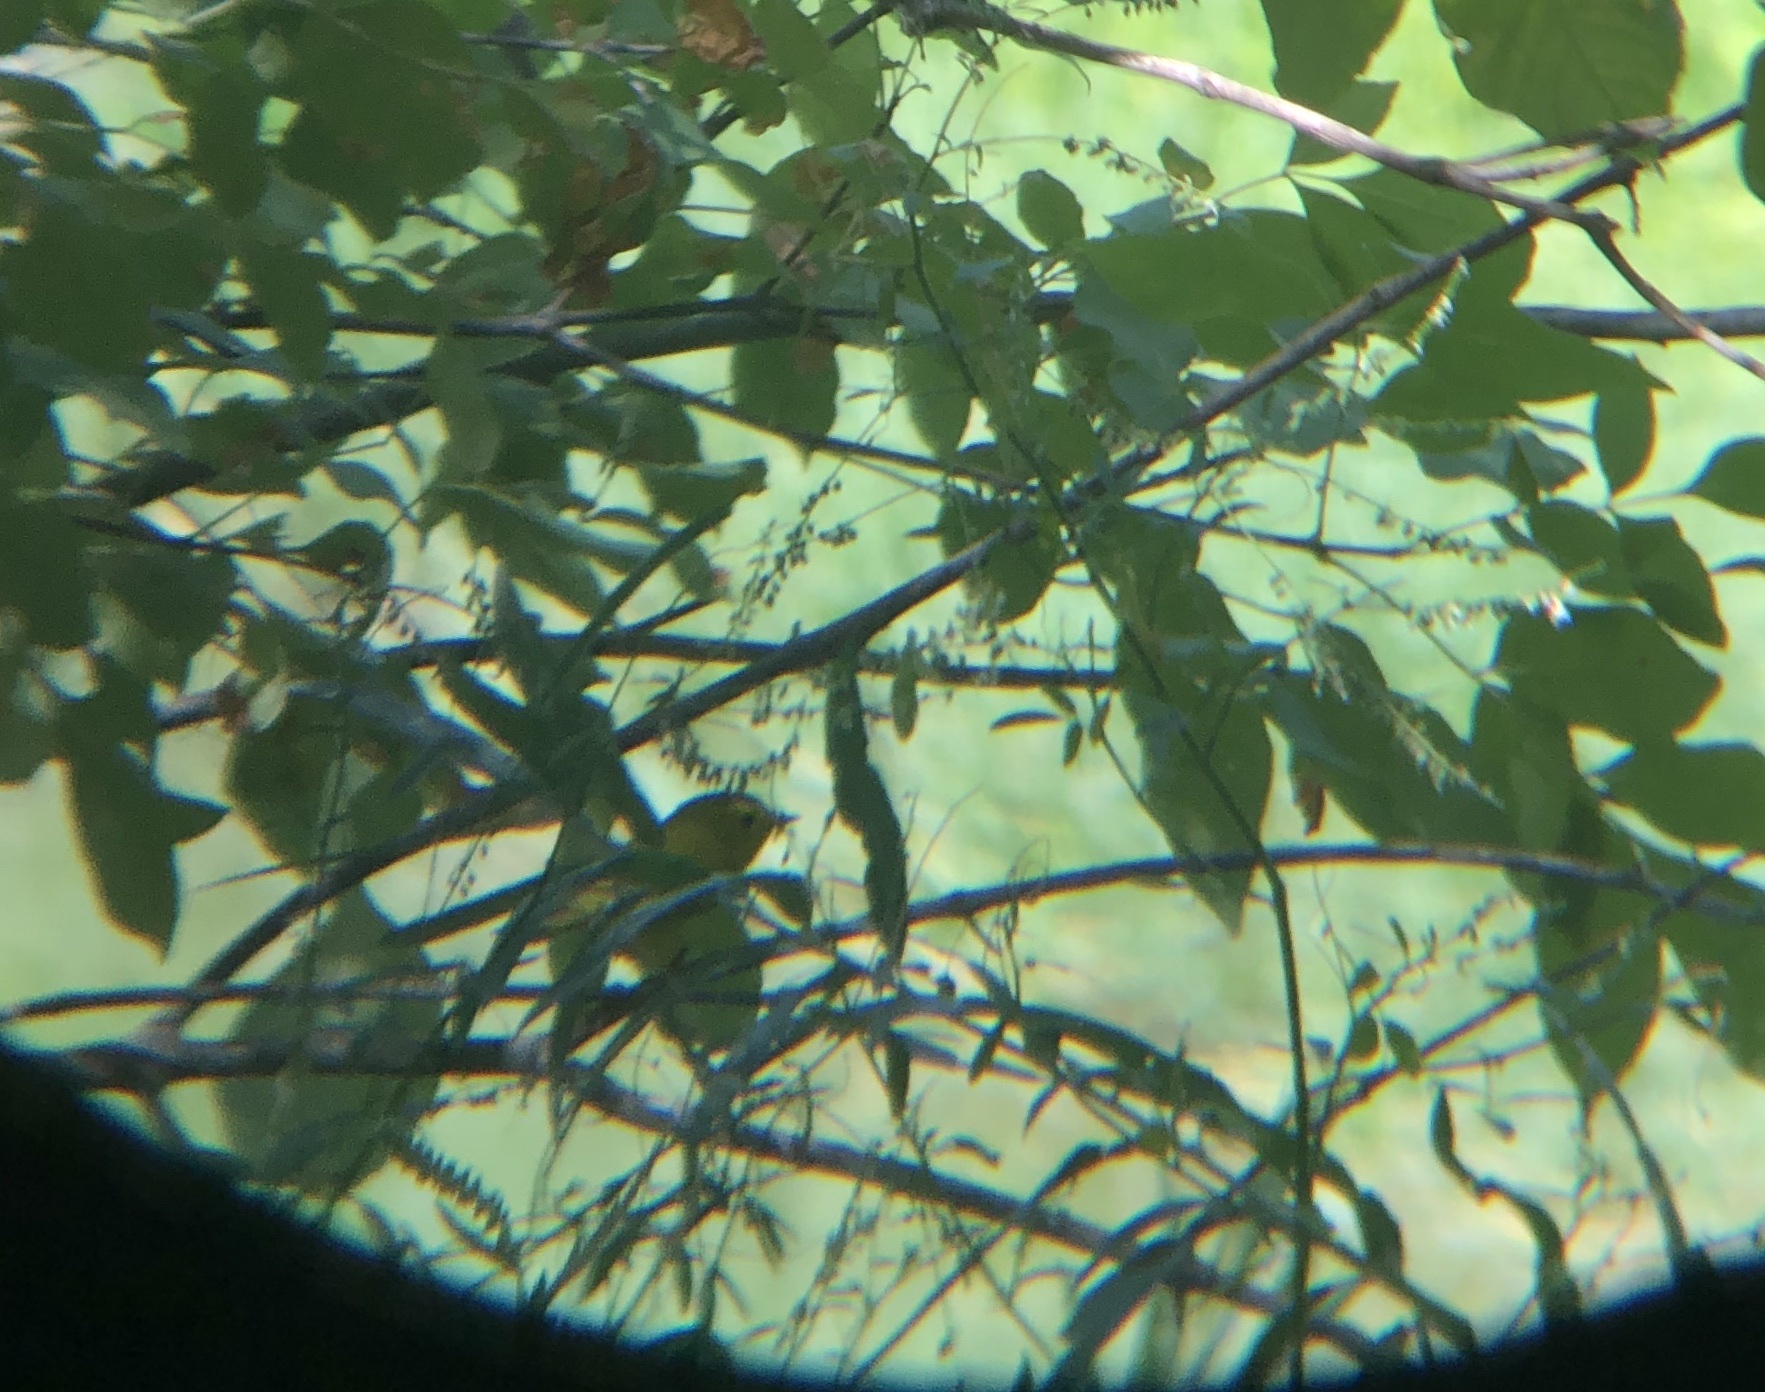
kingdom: Animalia
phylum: Chordata
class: Aves
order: Passeriformes
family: Parulidae
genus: Cardellina
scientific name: Cardellina pusilla
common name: Wilson's warbler
